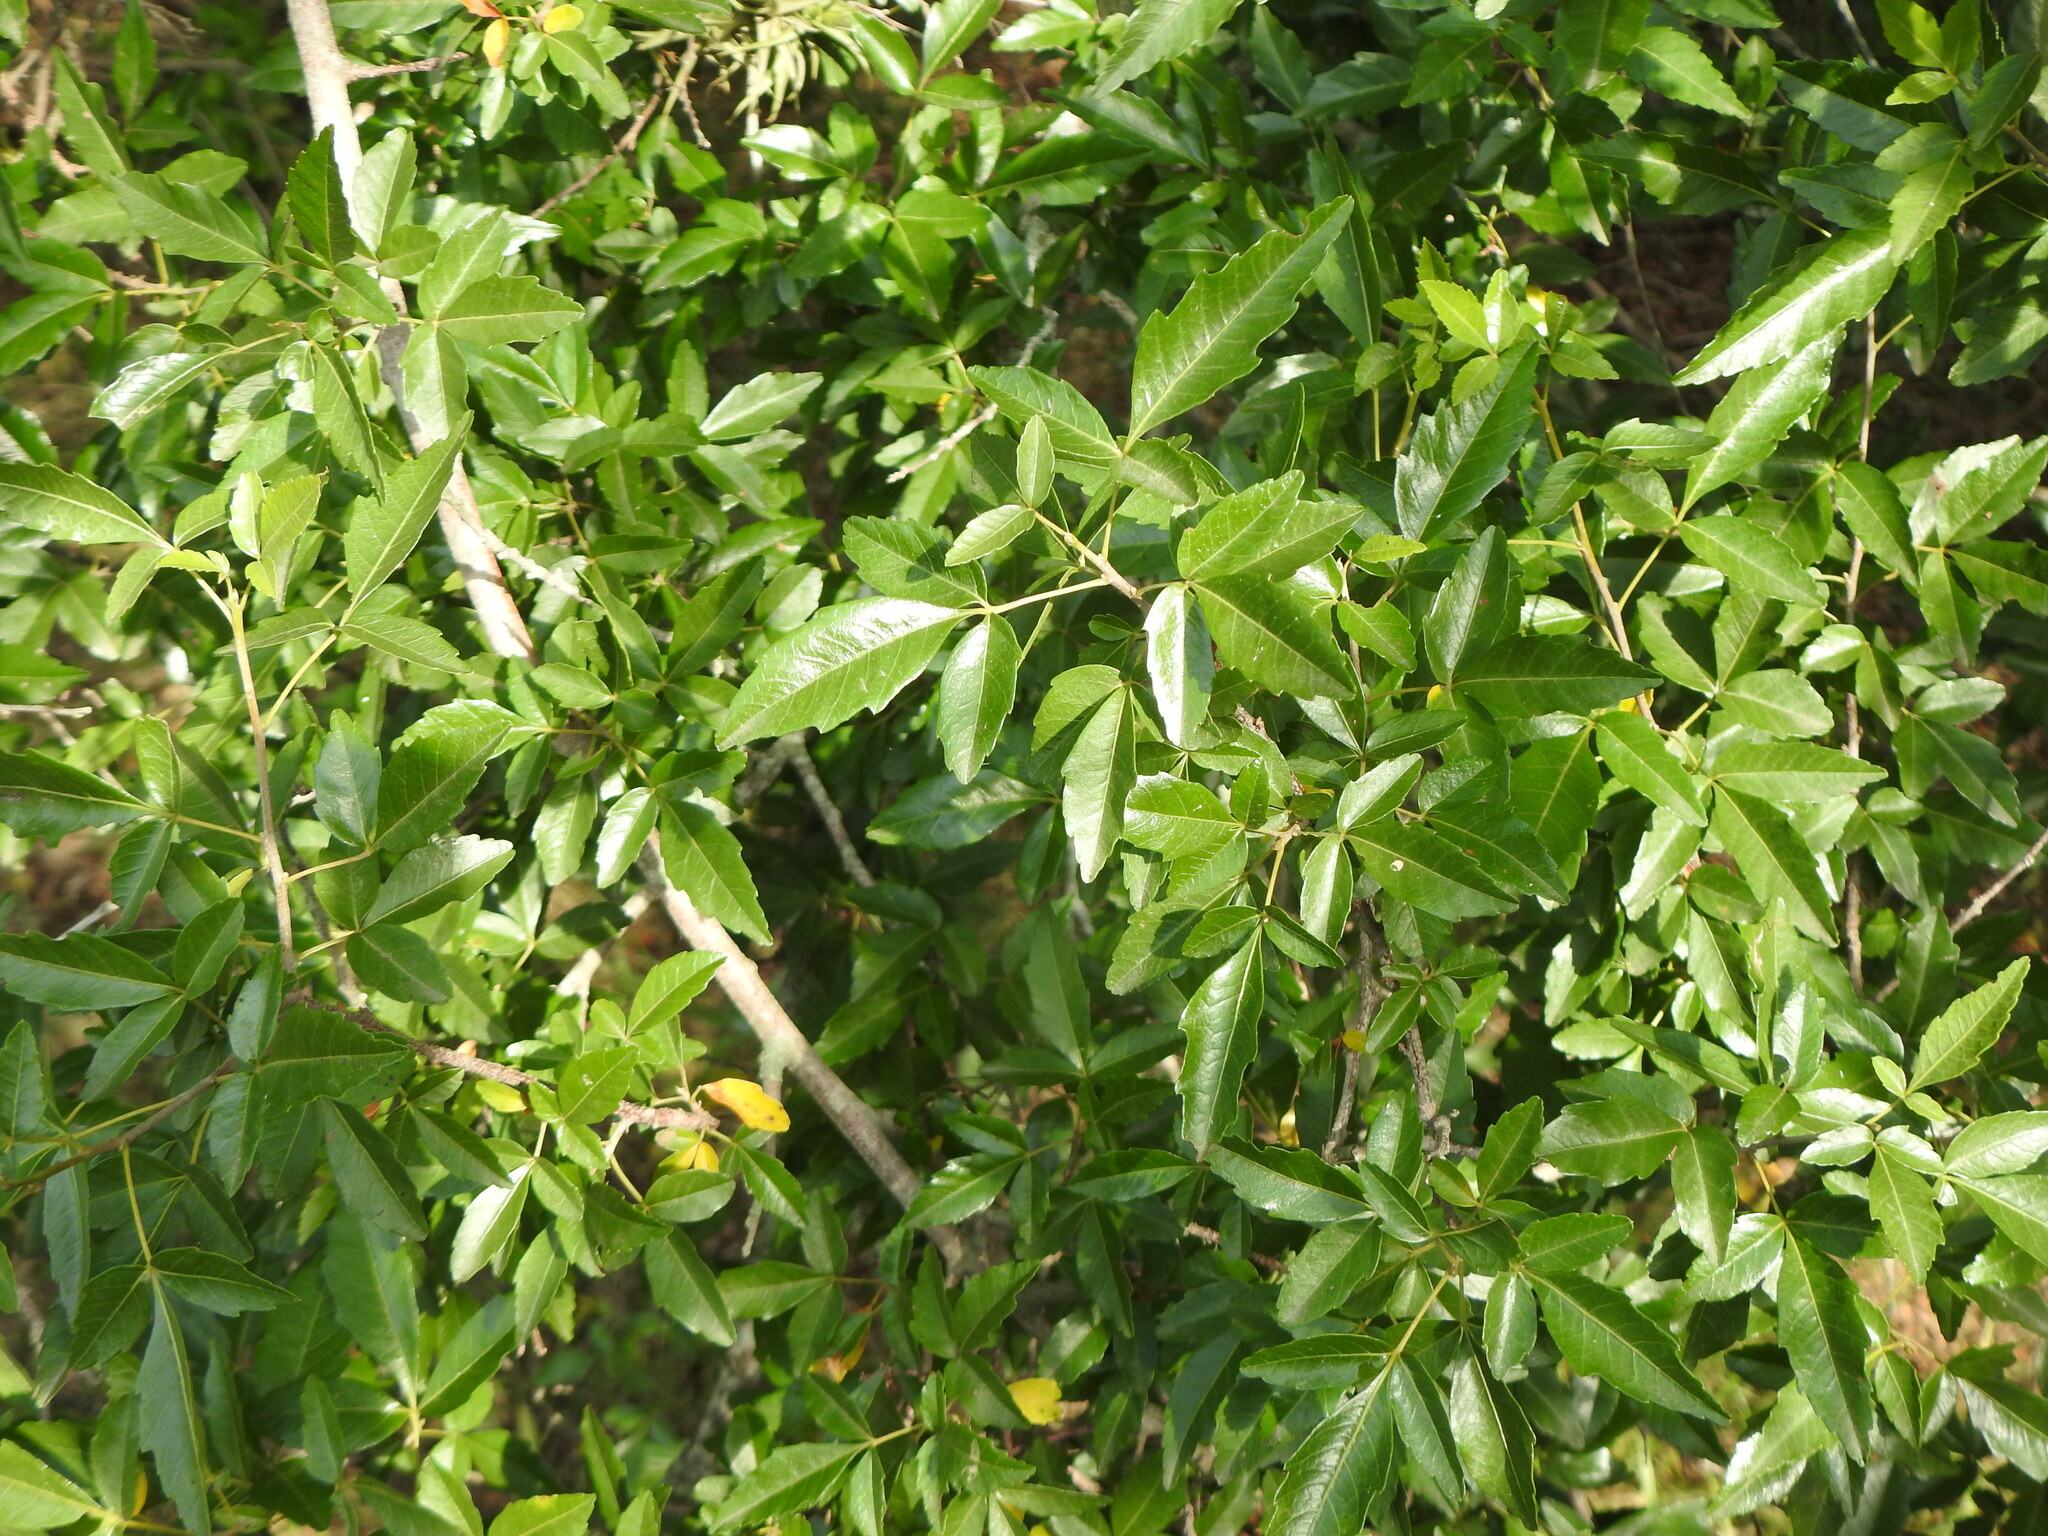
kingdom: Plantae
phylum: Tracheophyta
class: Magnoliopsida
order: Sapindales
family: Sapindaceae
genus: Allophylus
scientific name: Allophylus edulis
